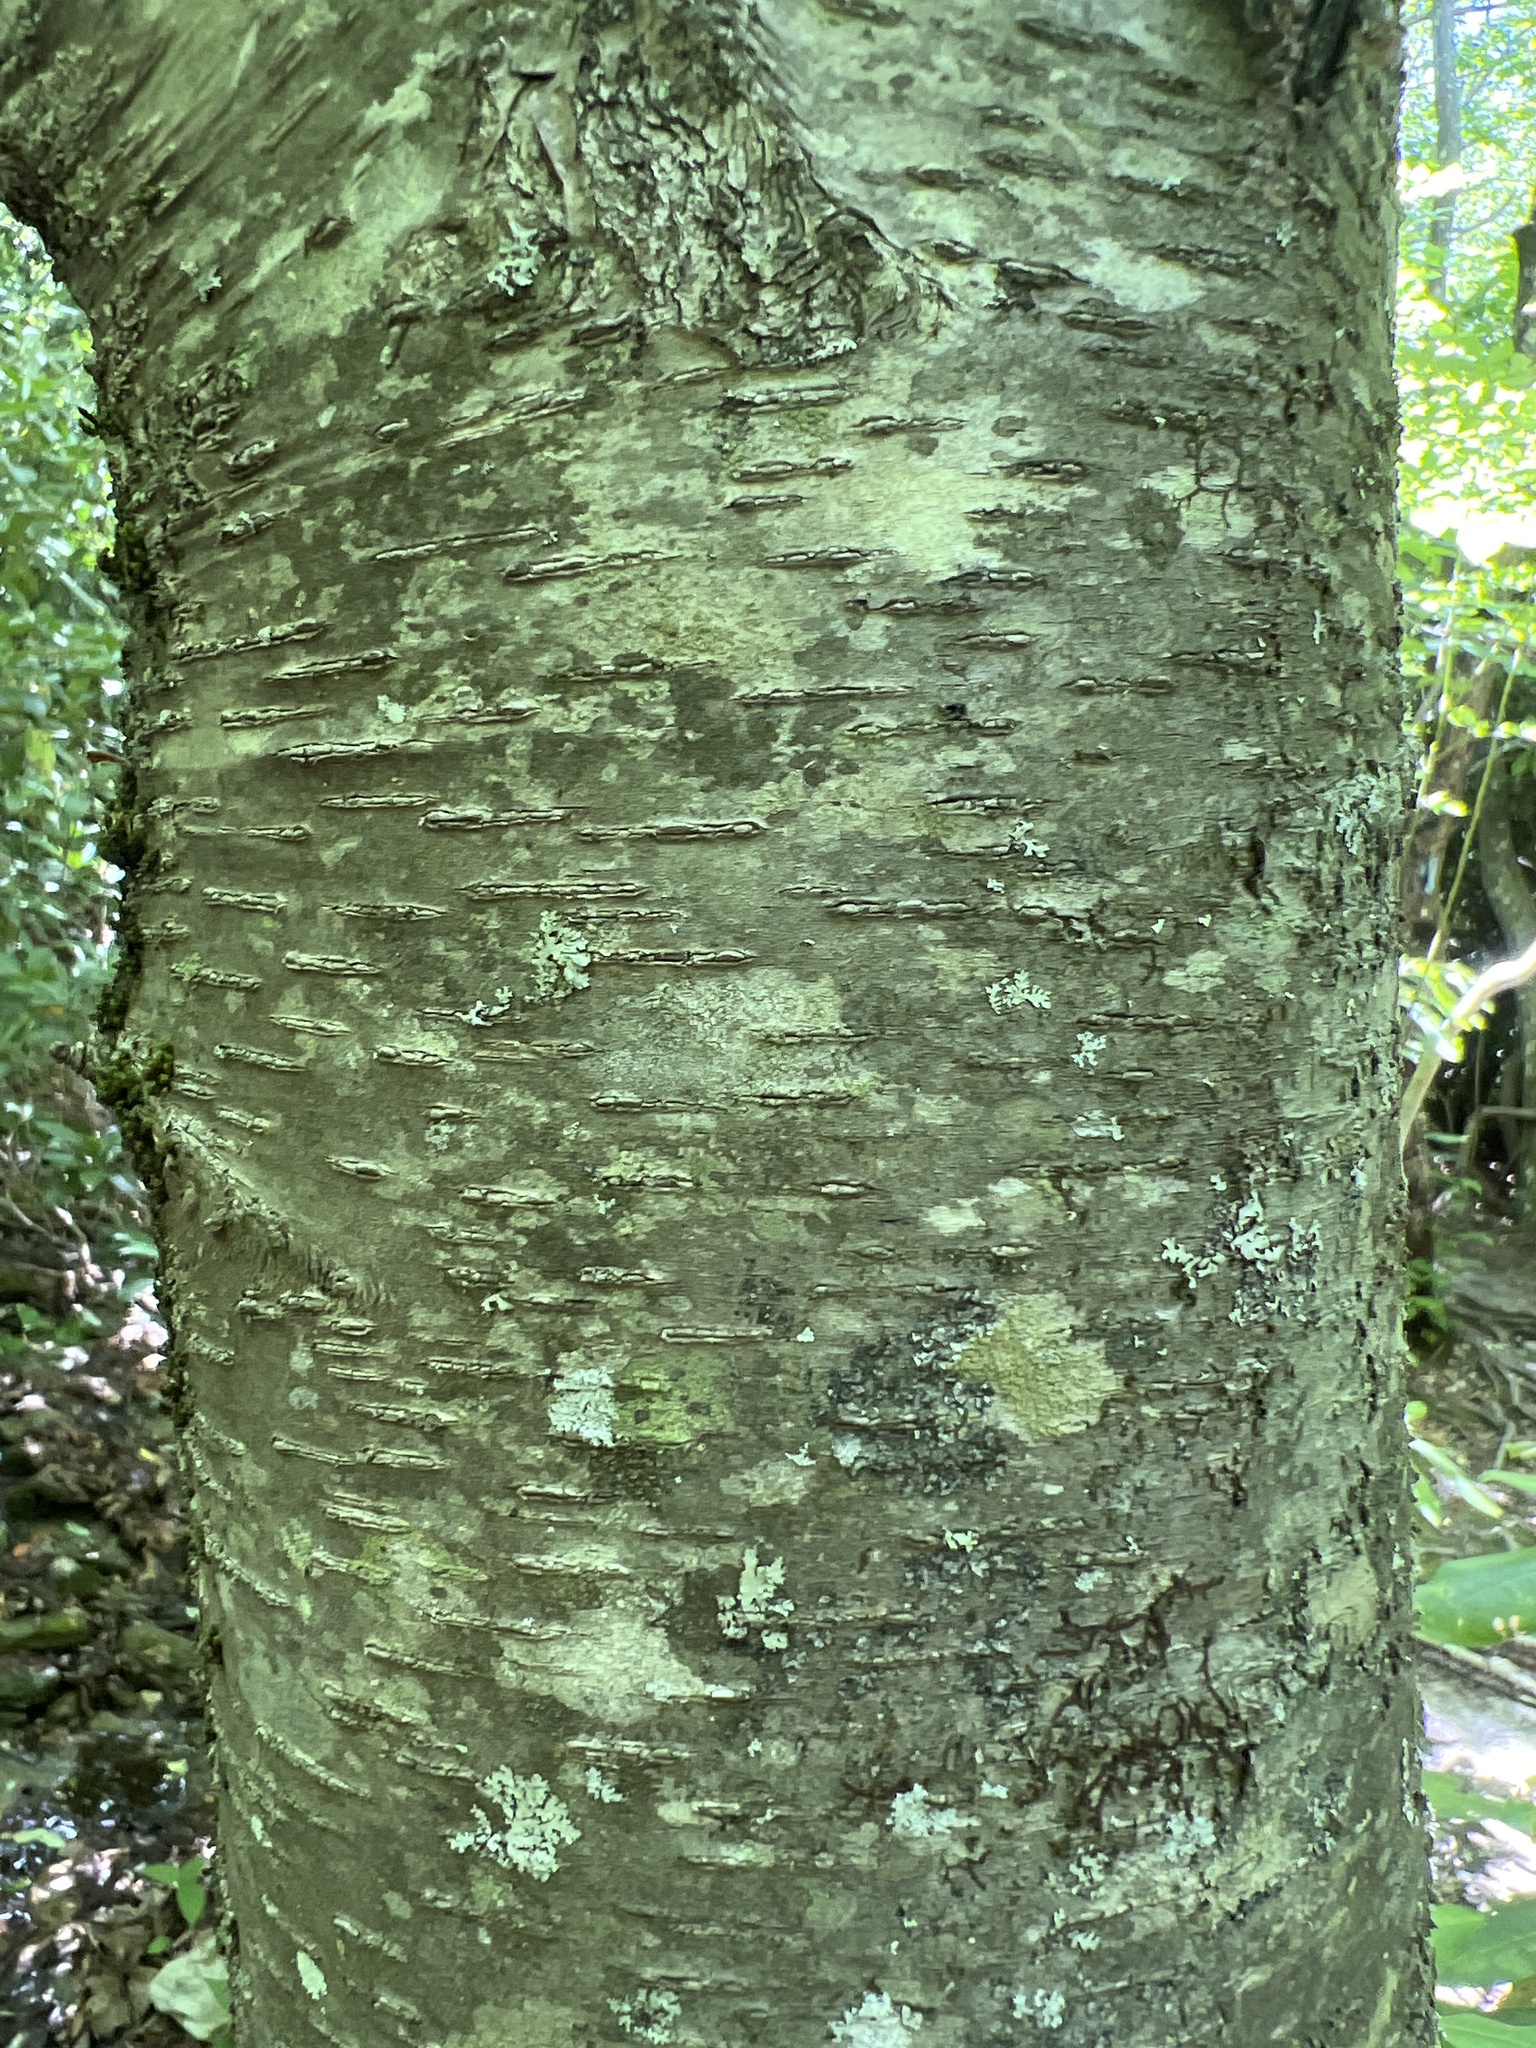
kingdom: Plantae
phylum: Tracheophyta
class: Magnoliopsida
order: Fagales
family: Betulaceae
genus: Betula
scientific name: Betula lenta
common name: Black birch
